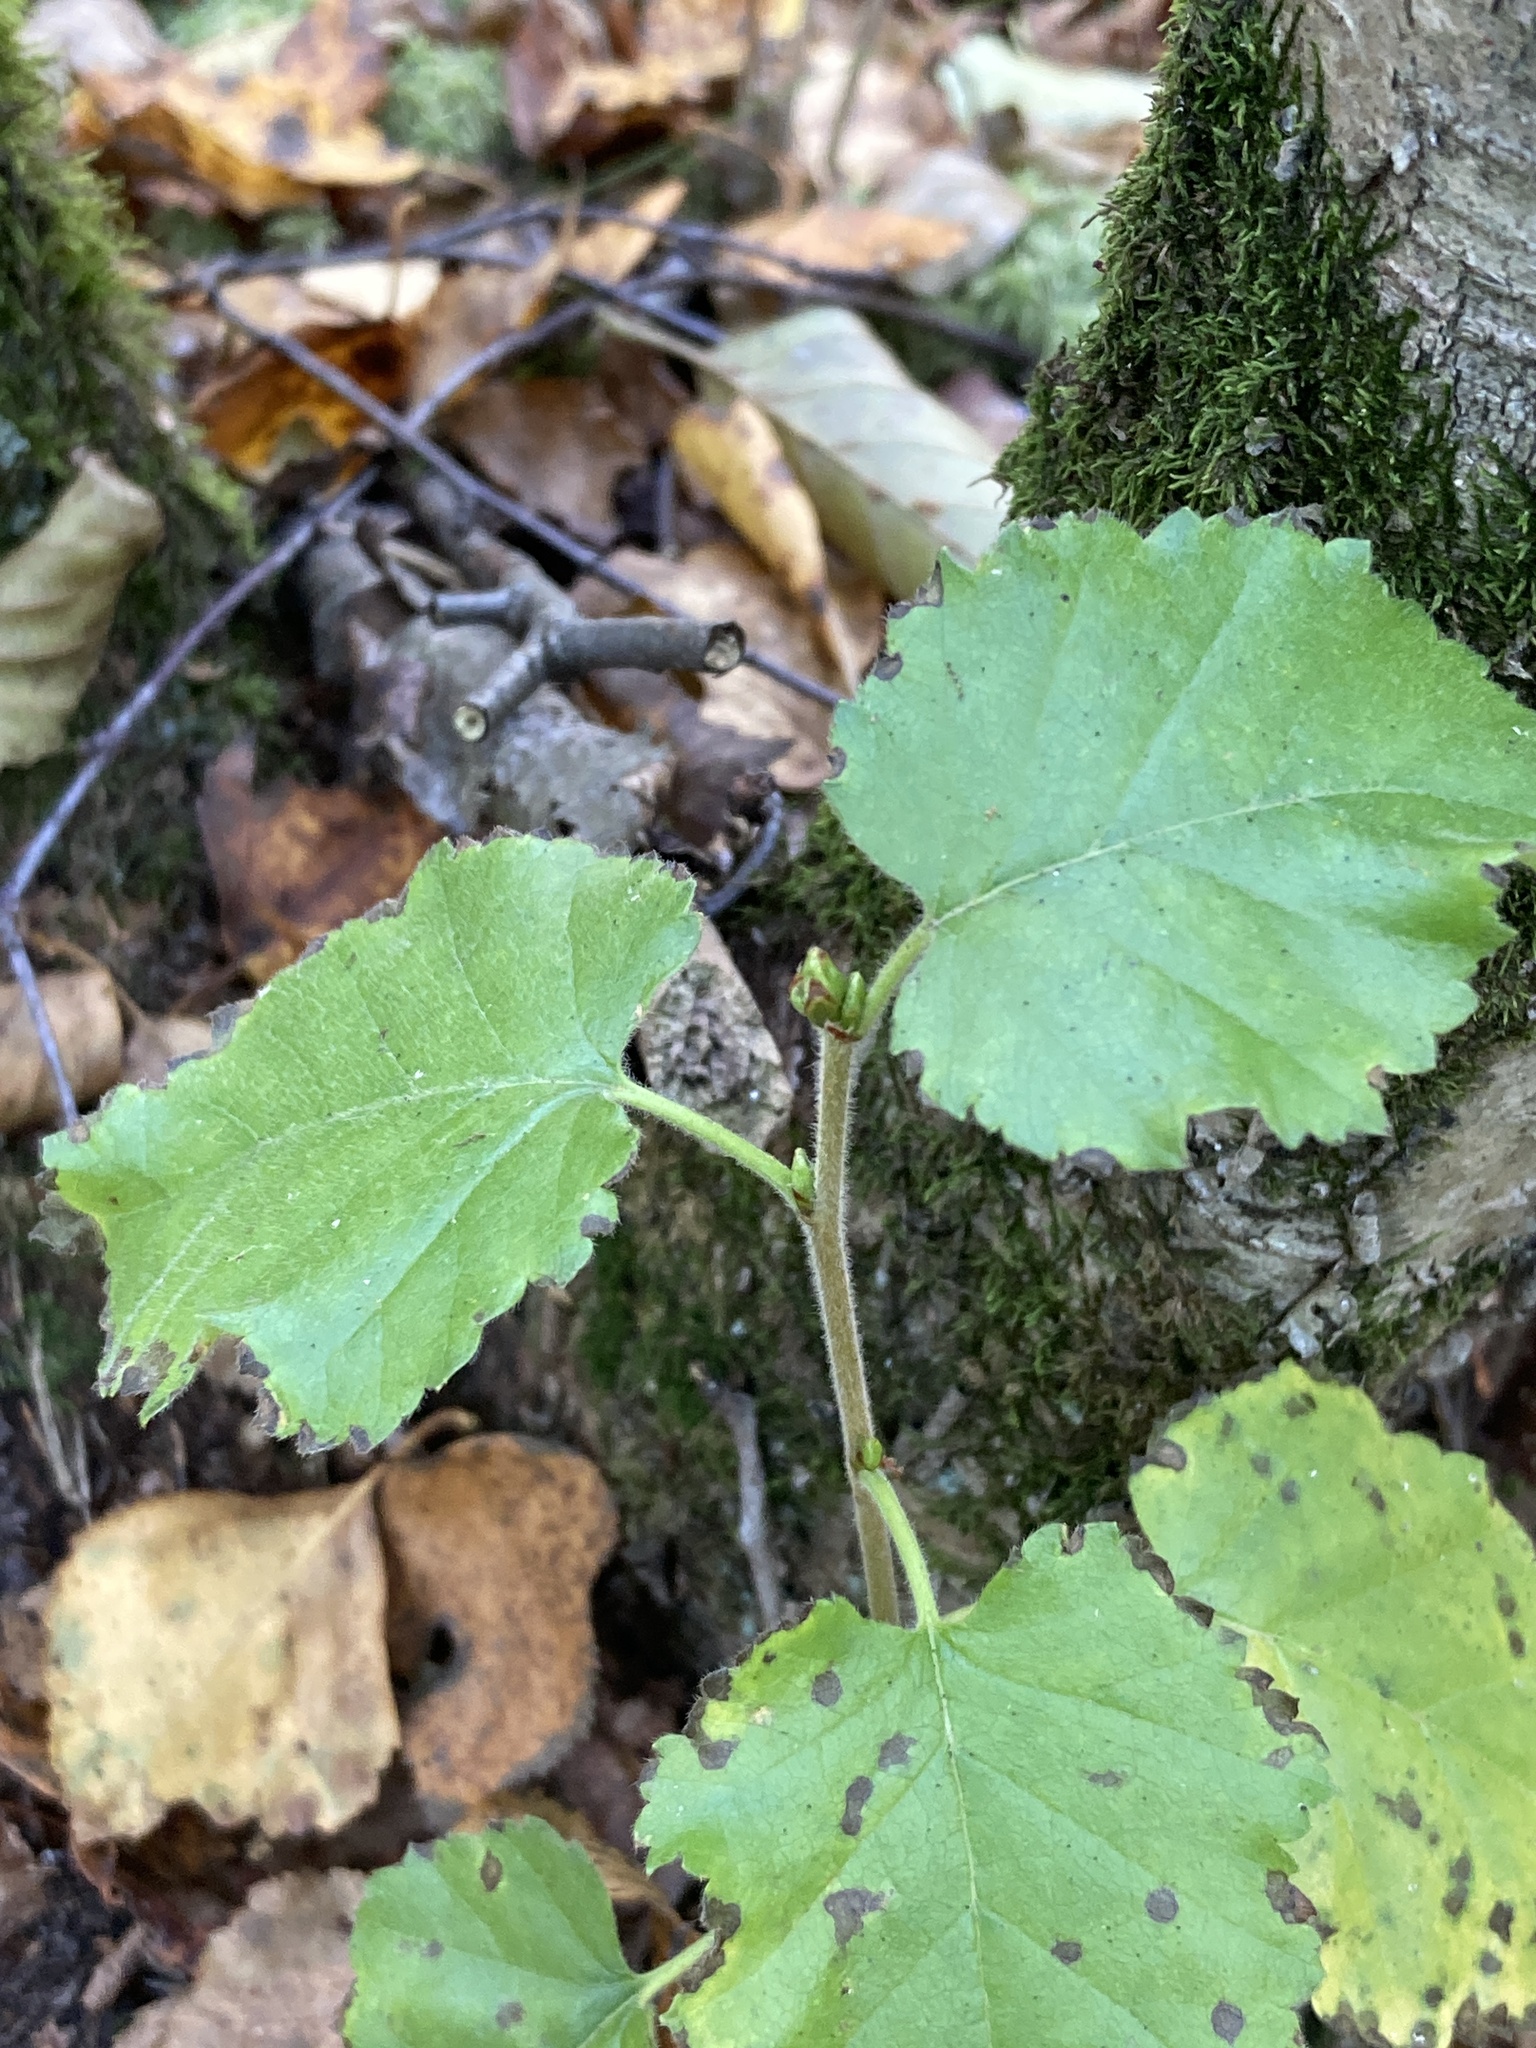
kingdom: Plantae
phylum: Tracheophyta
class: Magnoliopsida
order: Fagales
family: Betulaceae
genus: Betula
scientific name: Betula pubescens
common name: Downy birch
